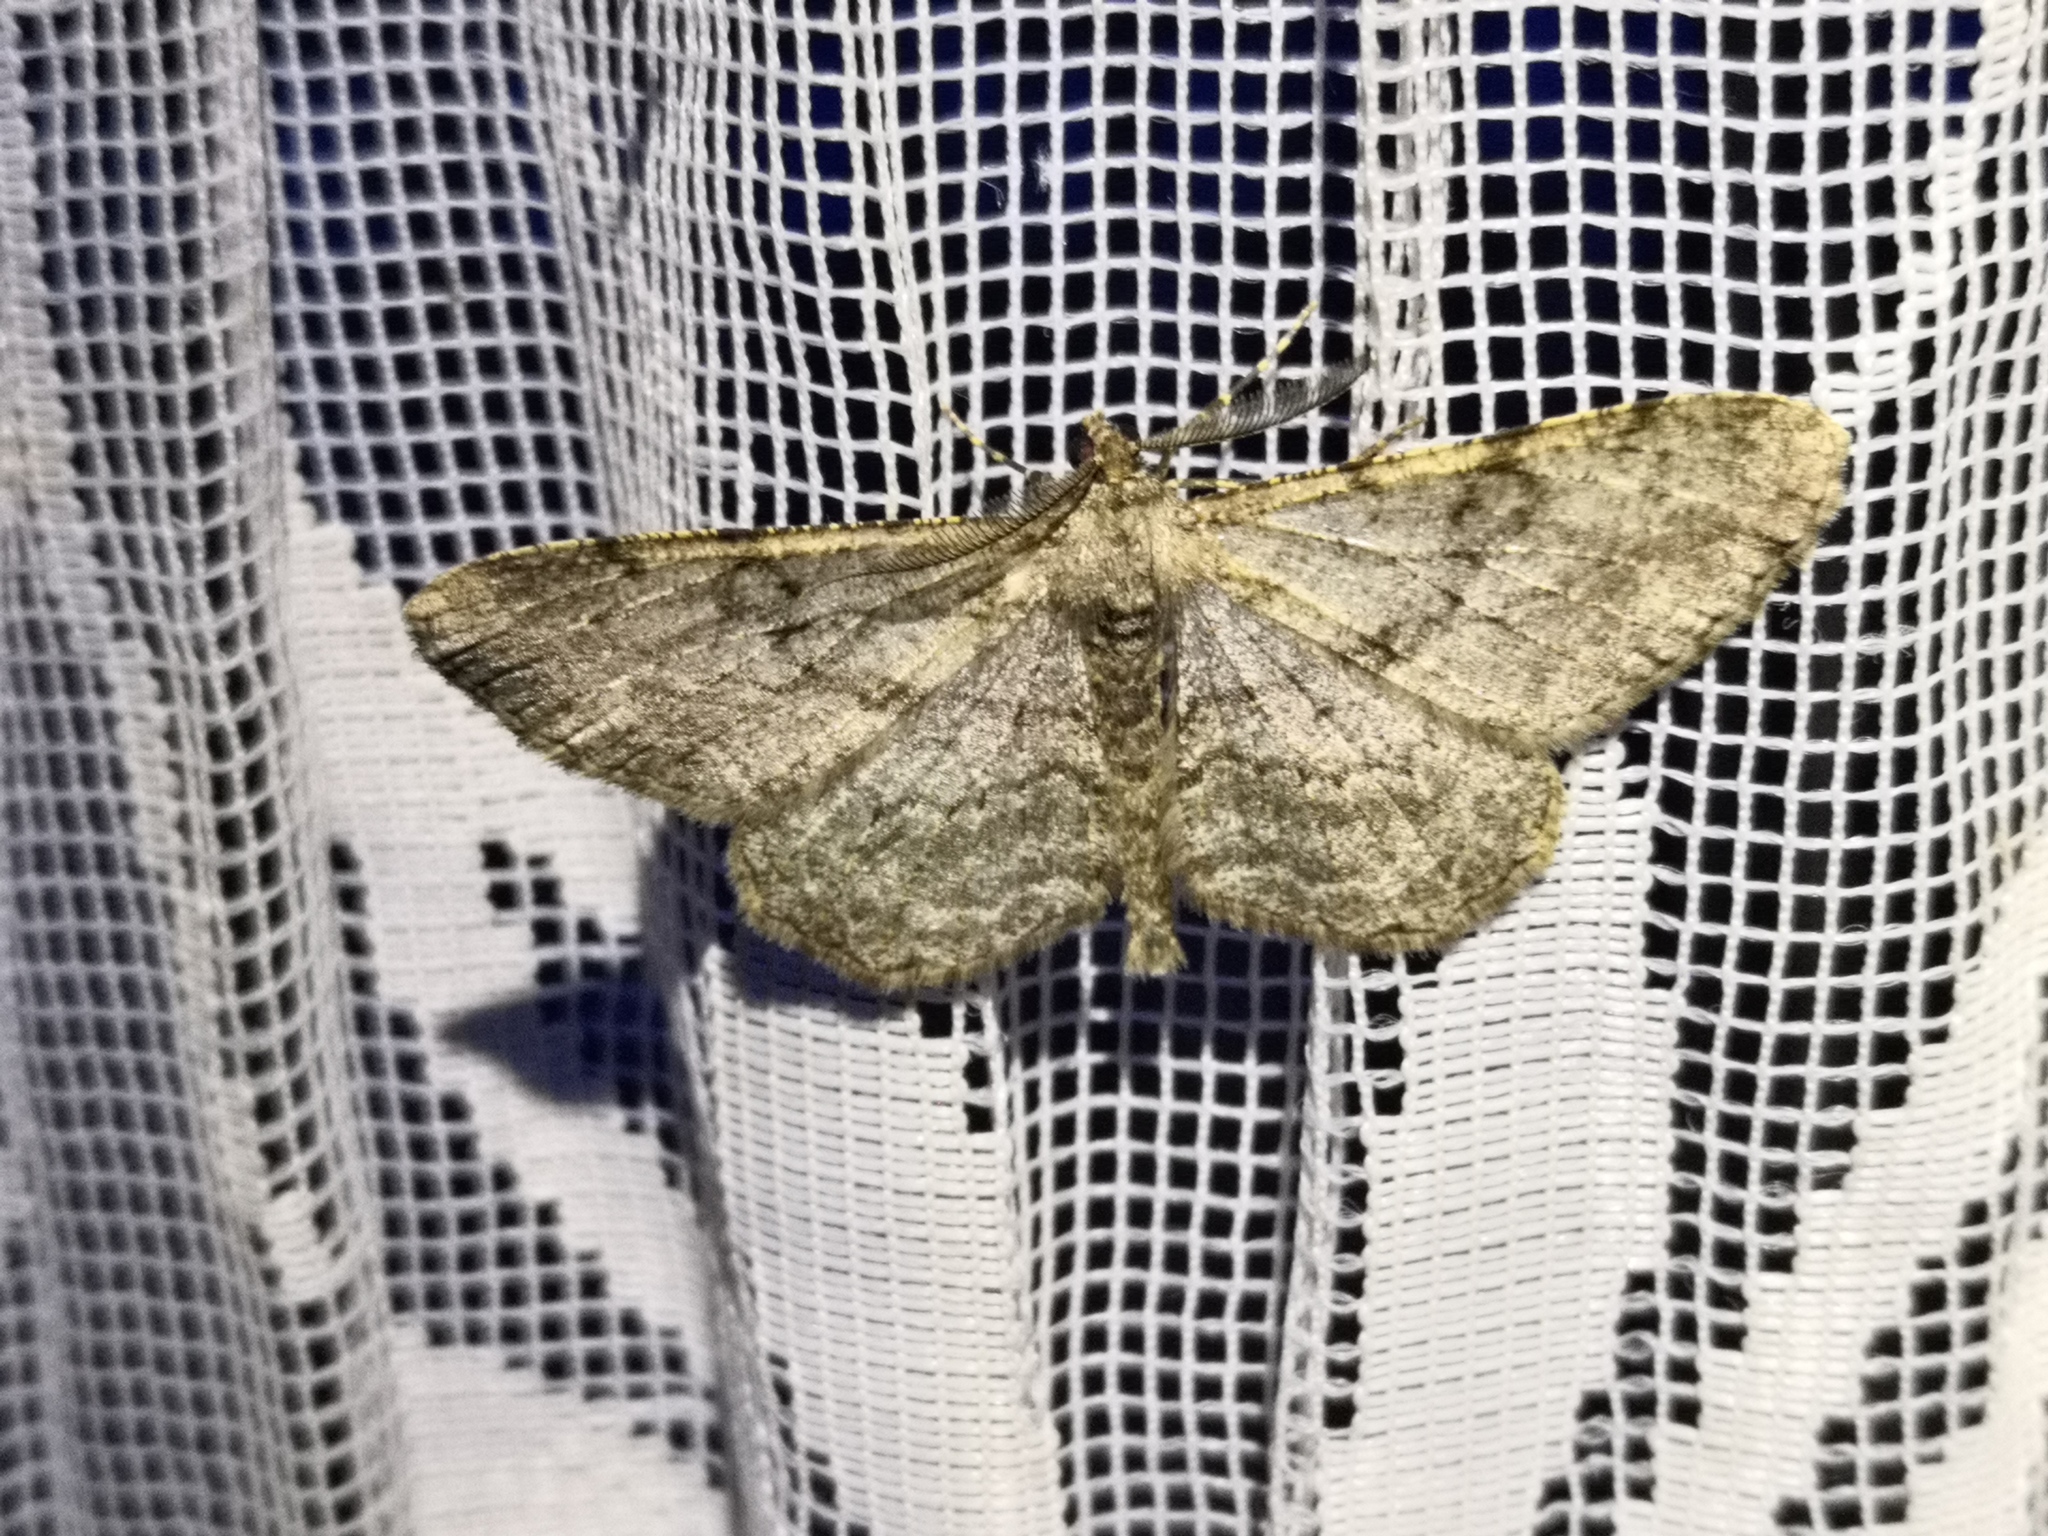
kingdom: Animalia
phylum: Arthropoda
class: Insecta
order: Lepidoptera
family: Geometridae
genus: Peribatodes
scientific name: Peribatodes rhomboidaria
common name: Willow beauty
